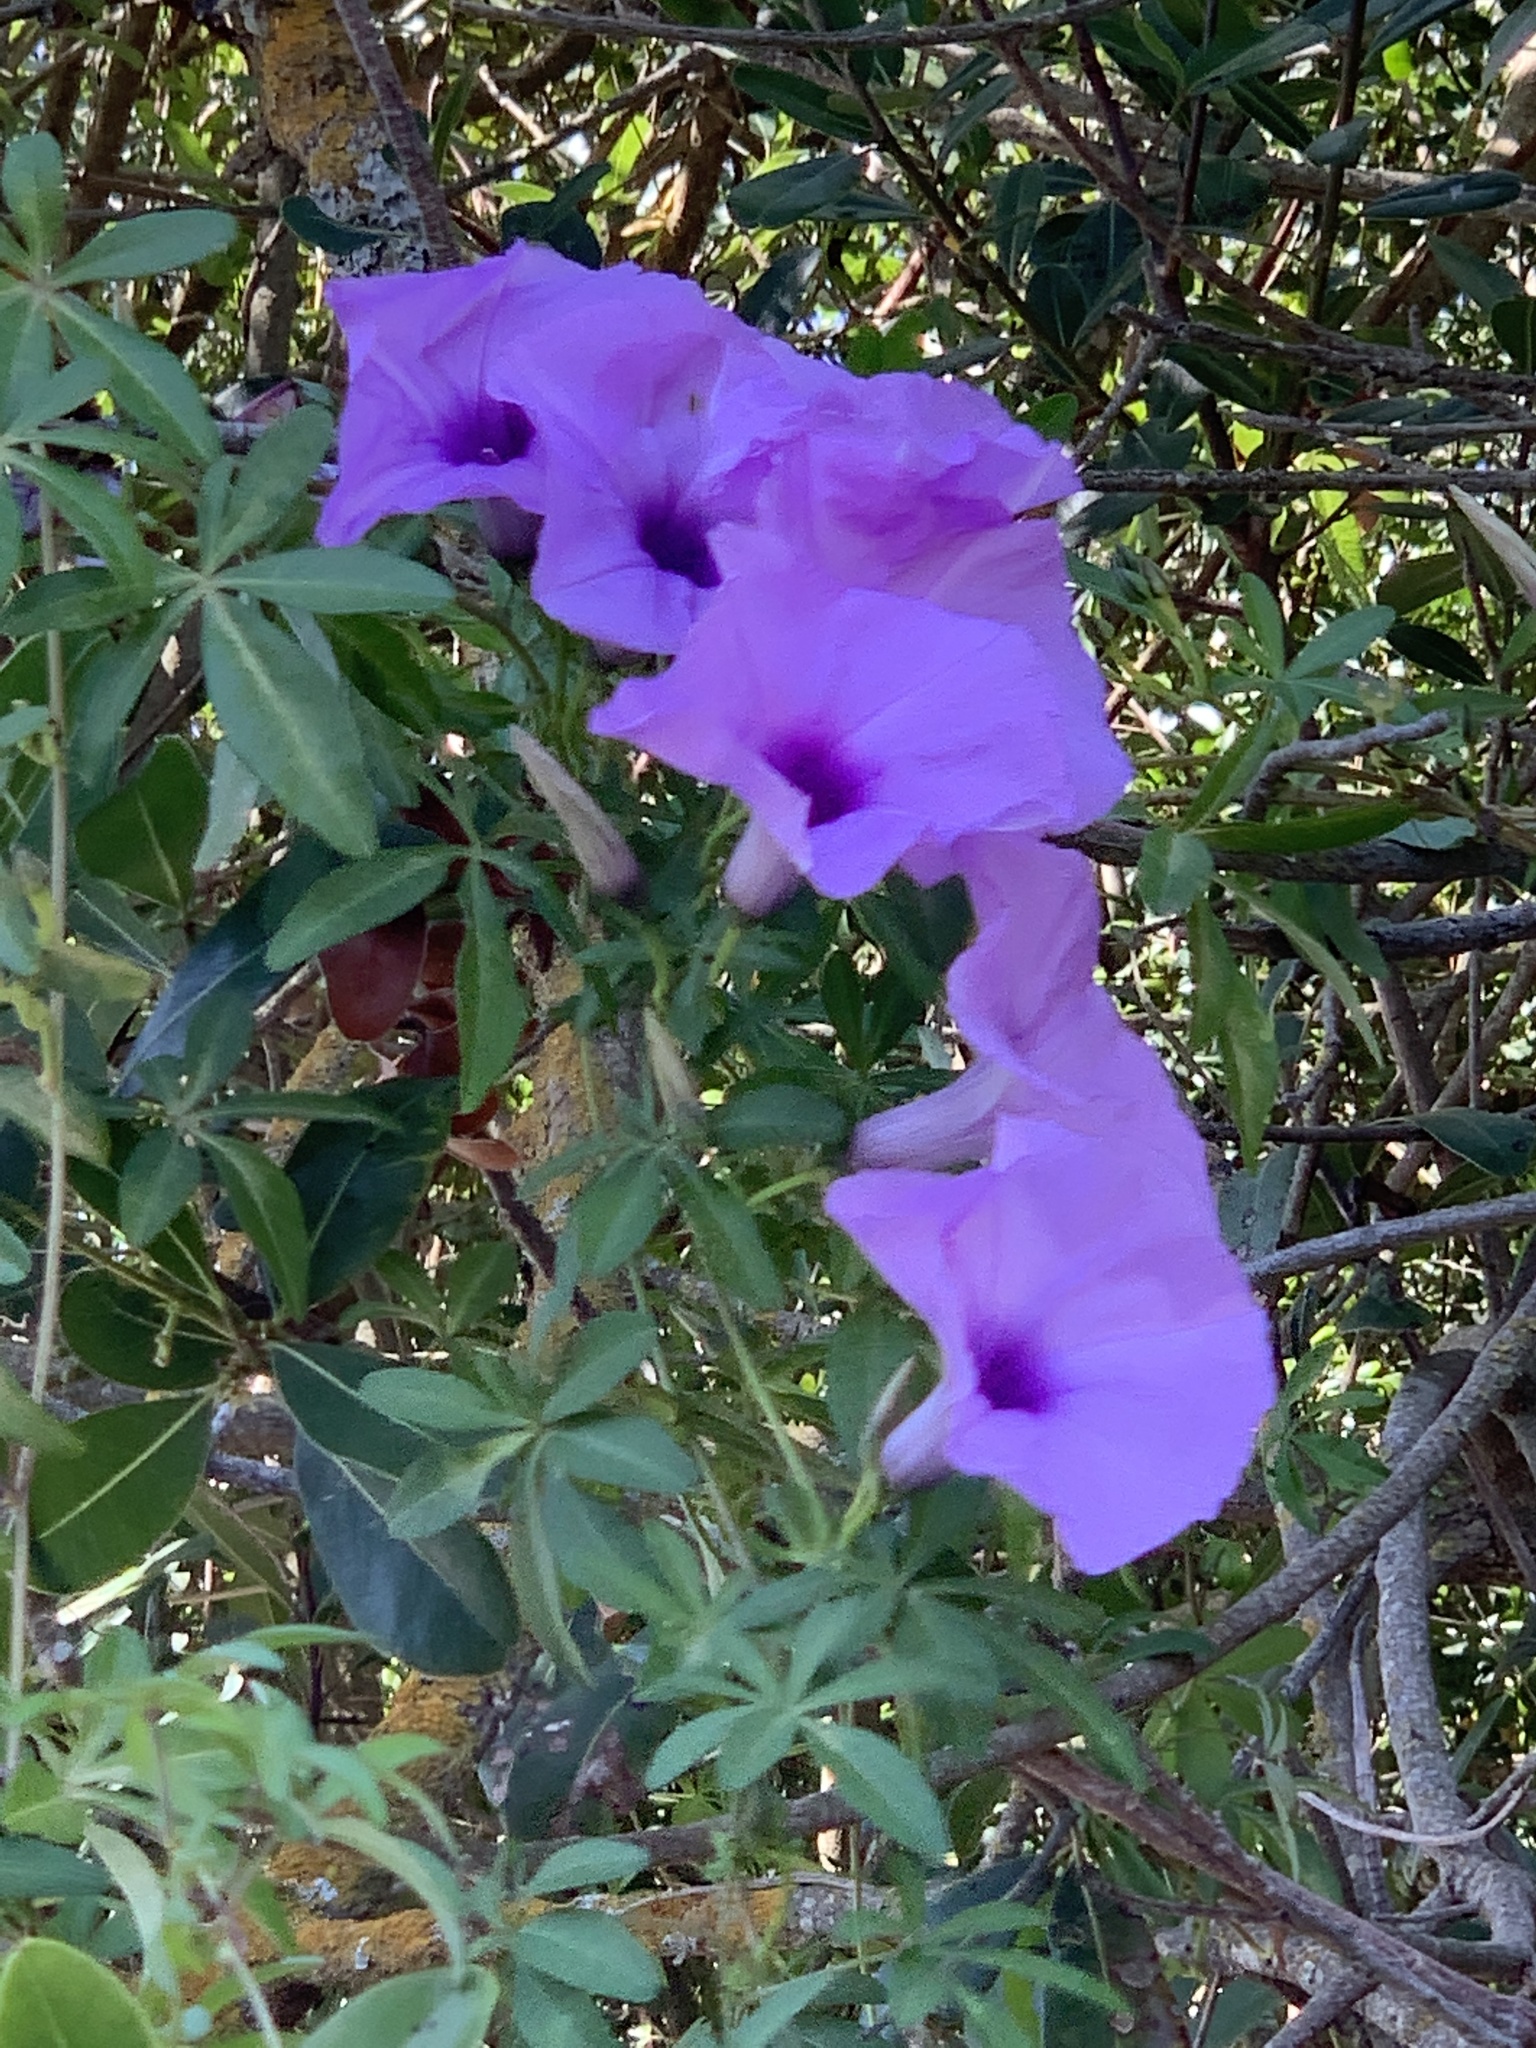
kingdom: Plantae
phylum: Tracheophyta
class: Magnoliopsida
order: Solanales
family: Convolvulaceae
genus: Ipomoea
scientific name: Ipomoea cairica
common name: Mile a minute vine
